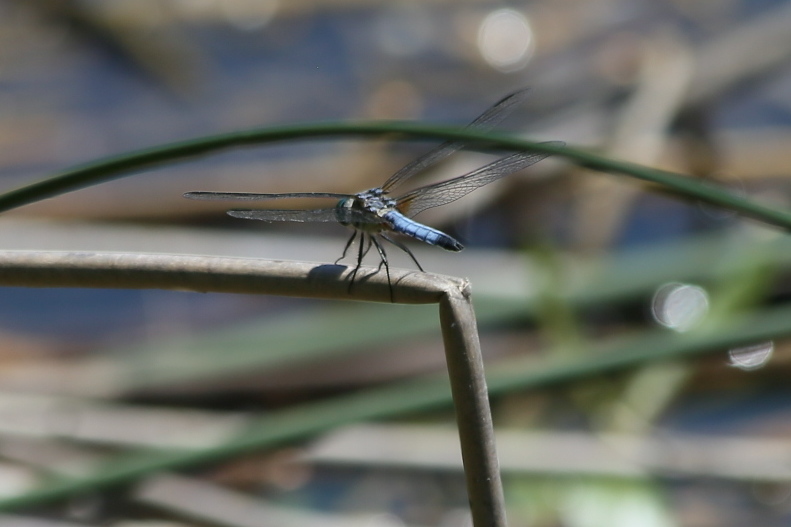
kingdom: Animalia
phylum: Arthropoda
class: Insecta
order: Odonata
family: Libellulidae
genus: Pachydiplax
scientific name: Pachydiplax longipennis
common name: Blue dasher
